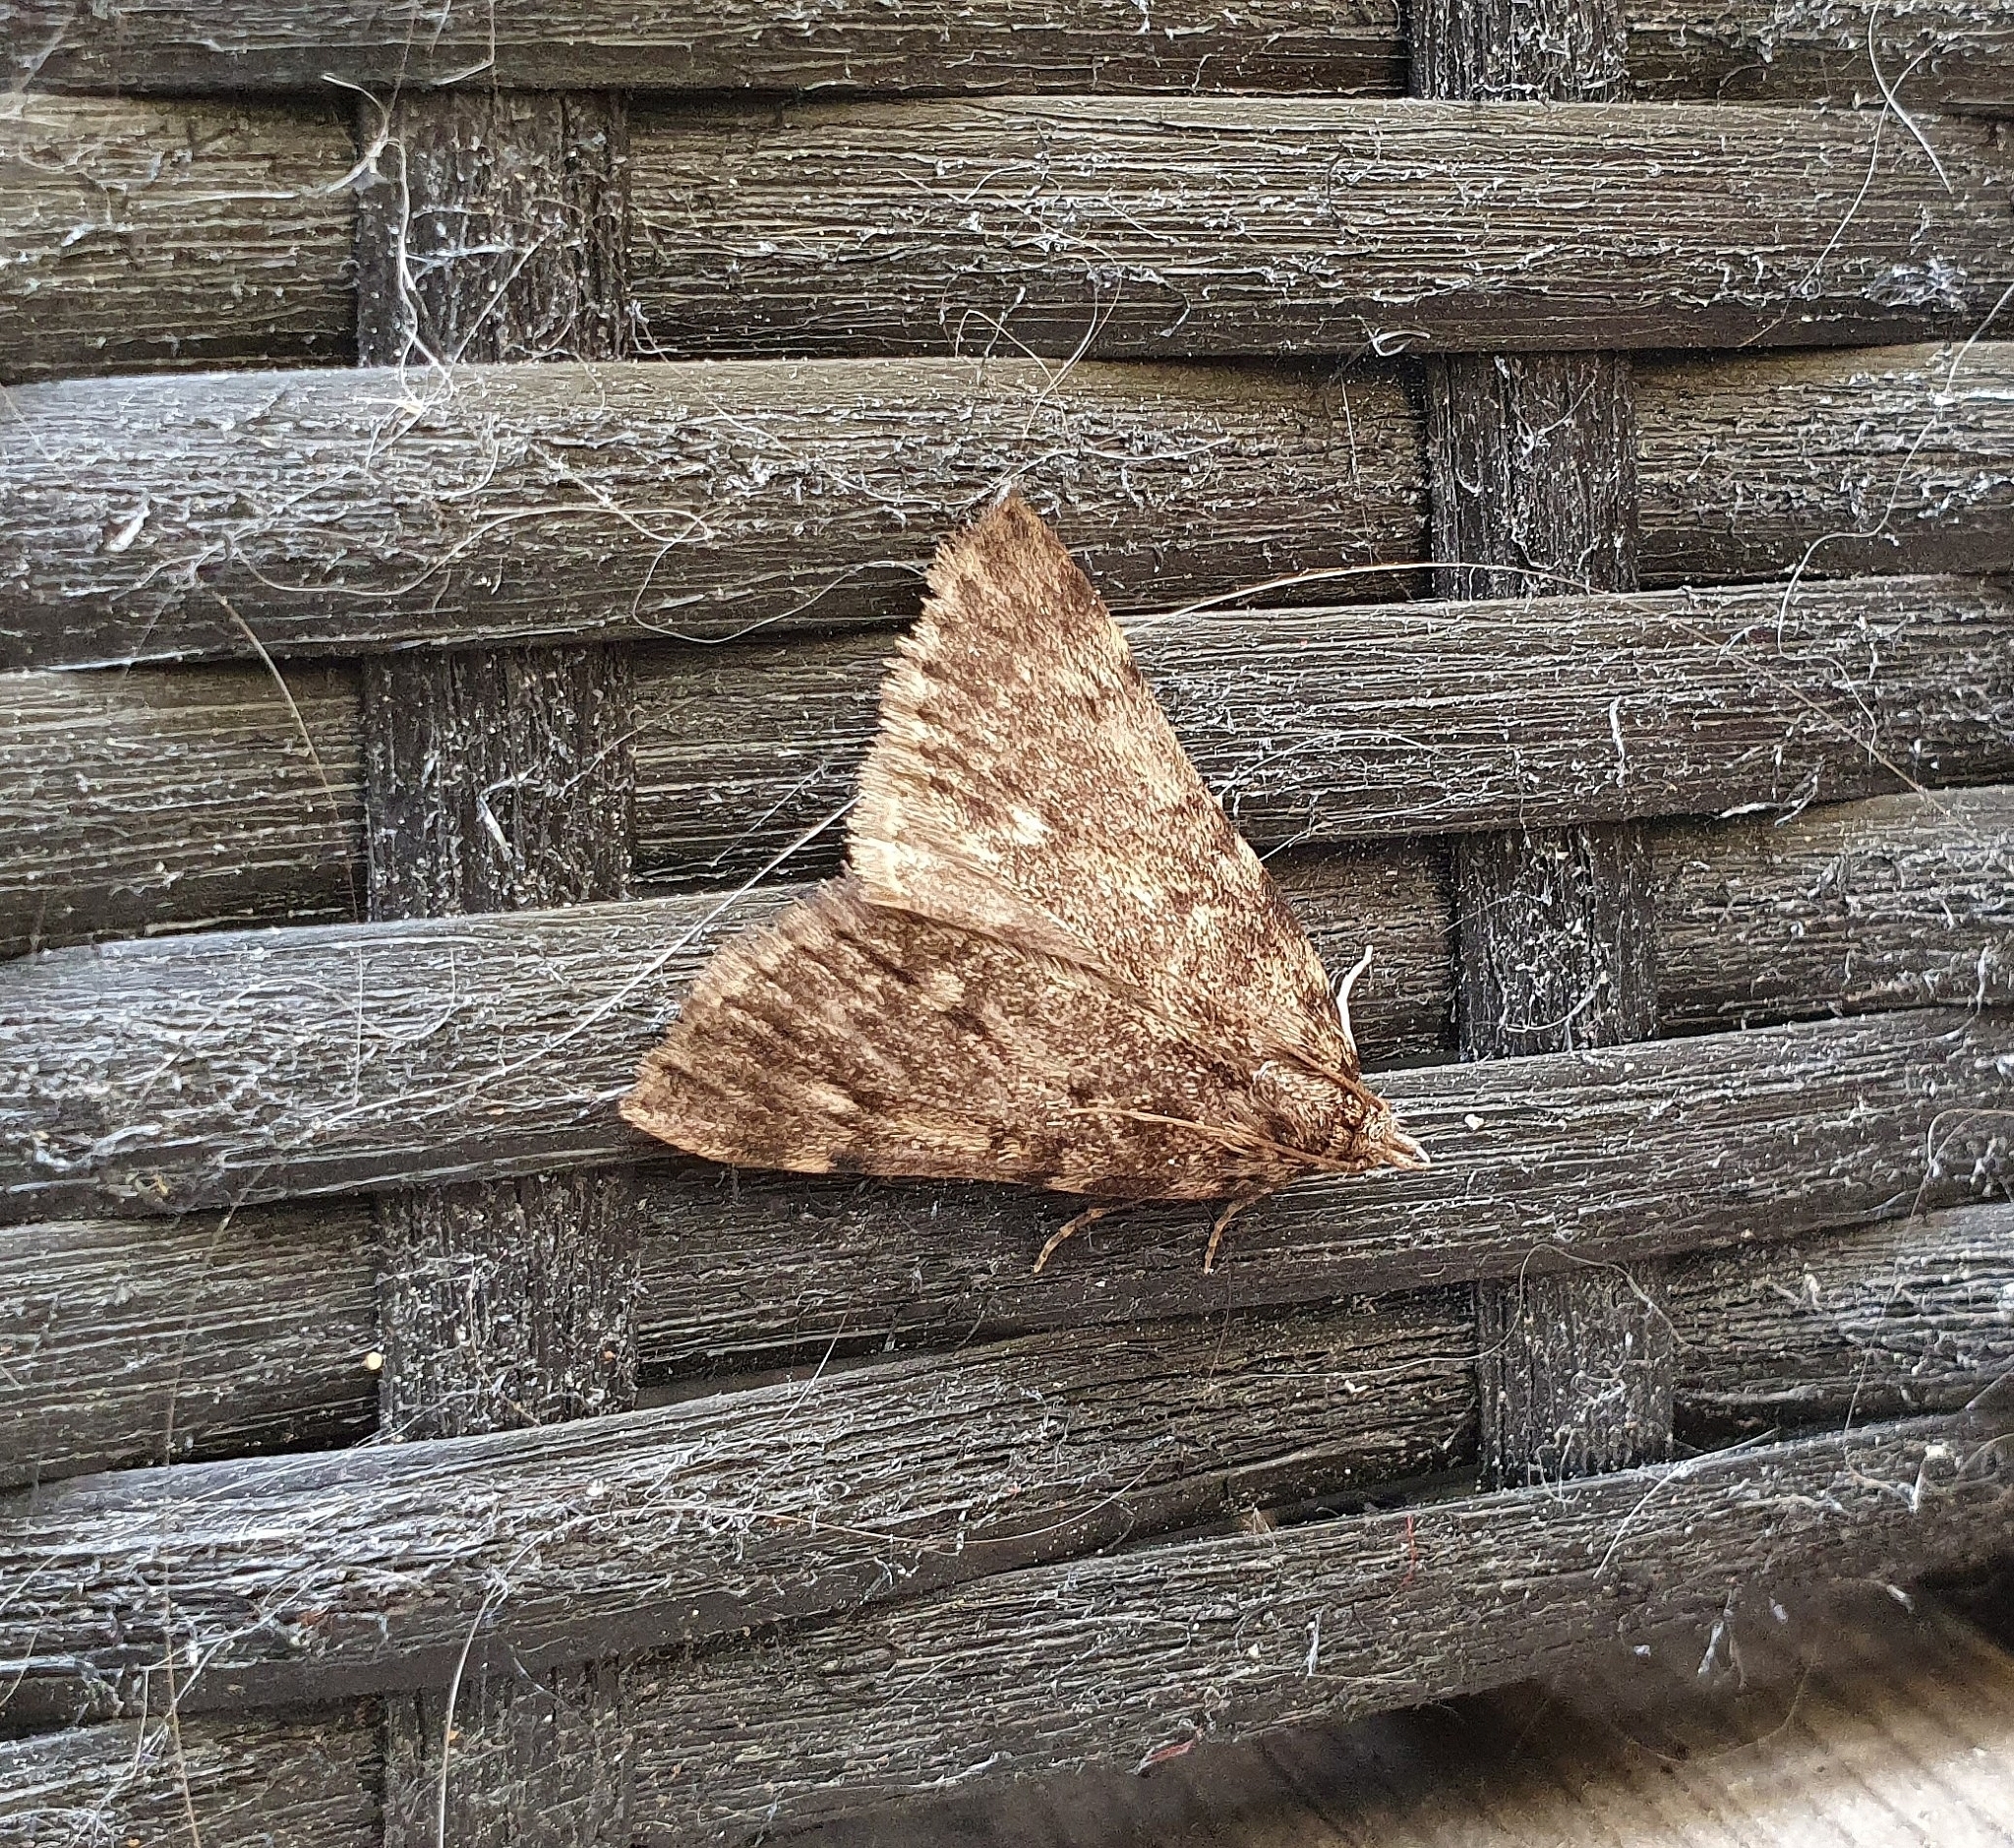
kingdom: Animalia
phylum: Arthropoda
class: Insecta
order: Lepidoptera
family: Pyralidae
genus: Aglossa
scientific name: Aglossa pinguinalis
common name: Large tabby
